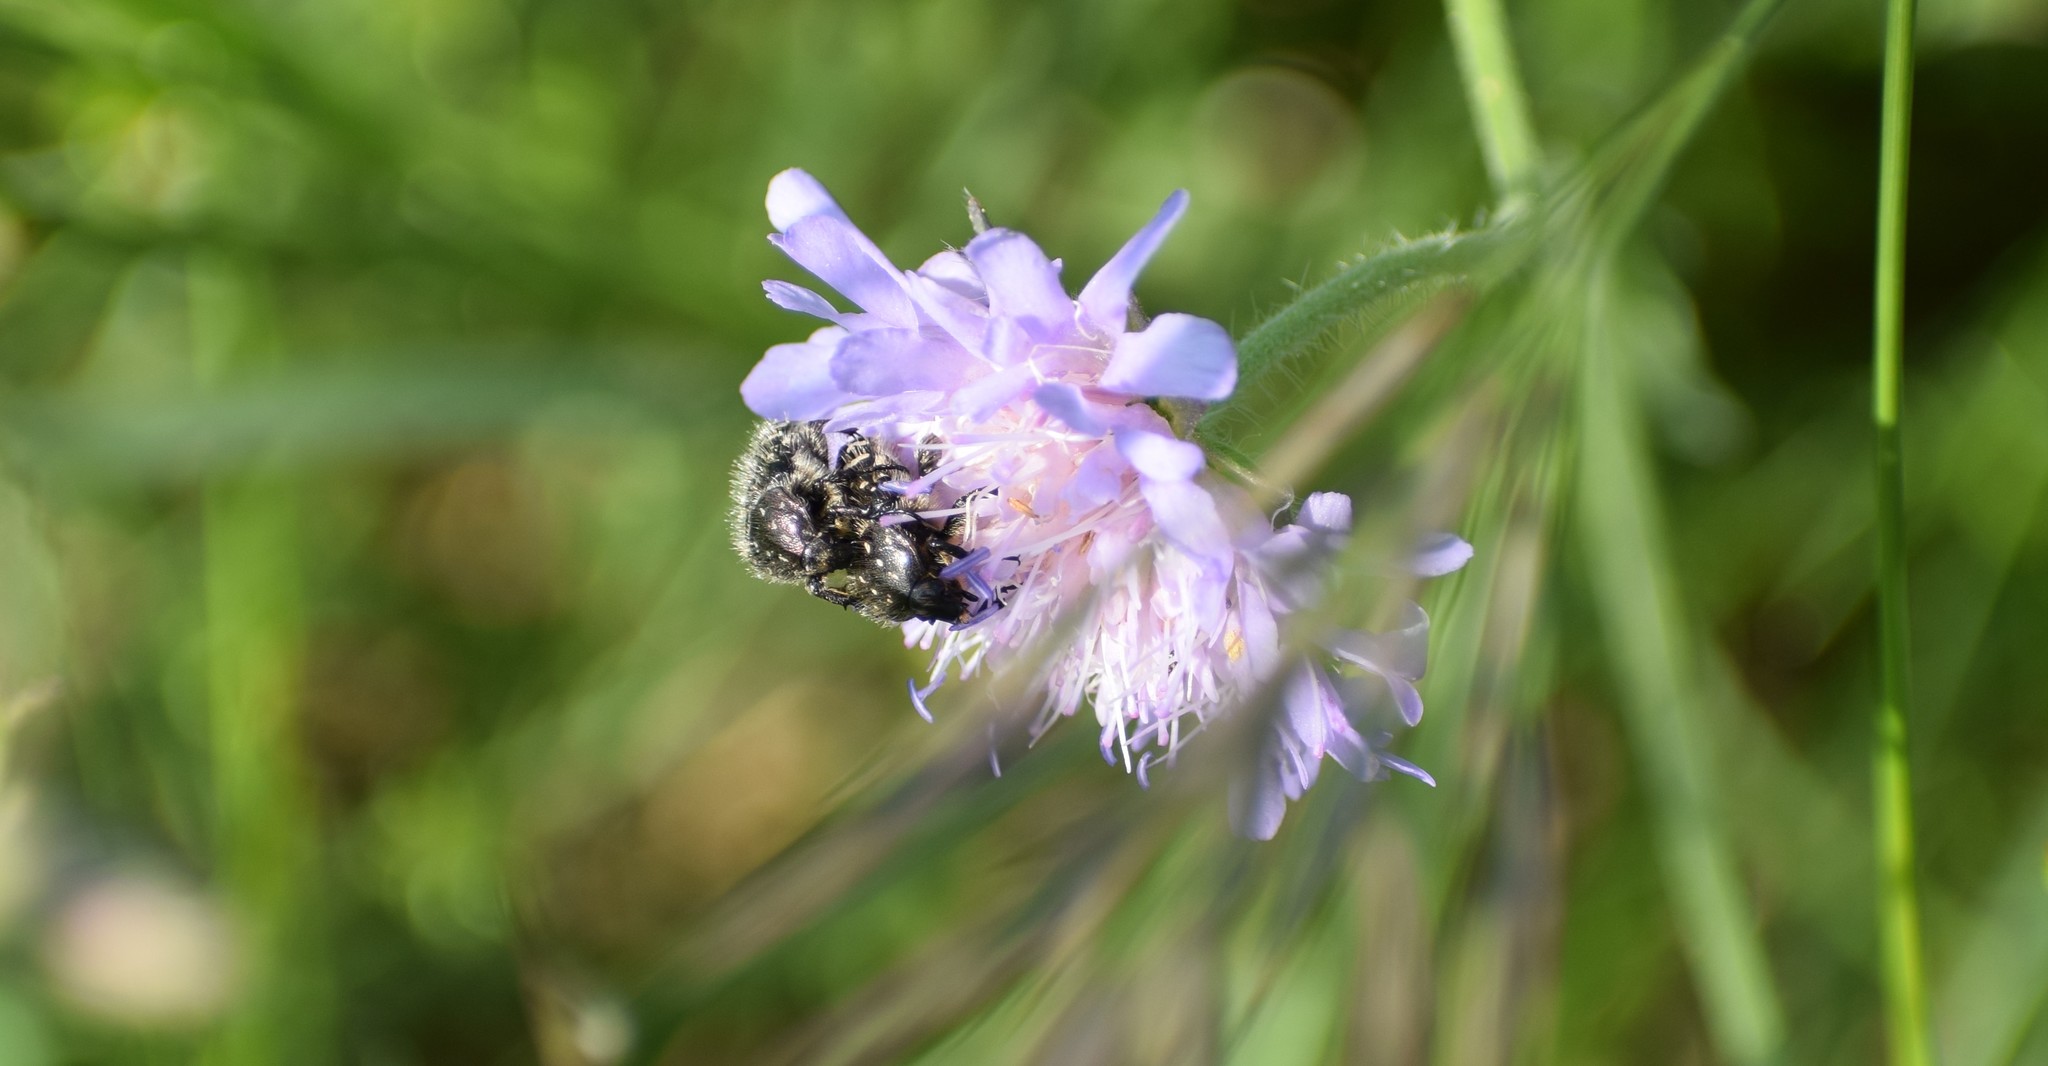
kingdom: Animalia
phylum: Arthropoda
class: Insecta
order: Coleoptera
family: Scarabaeidae
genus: Oxythyrea
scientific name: Oxythyrea funesta
